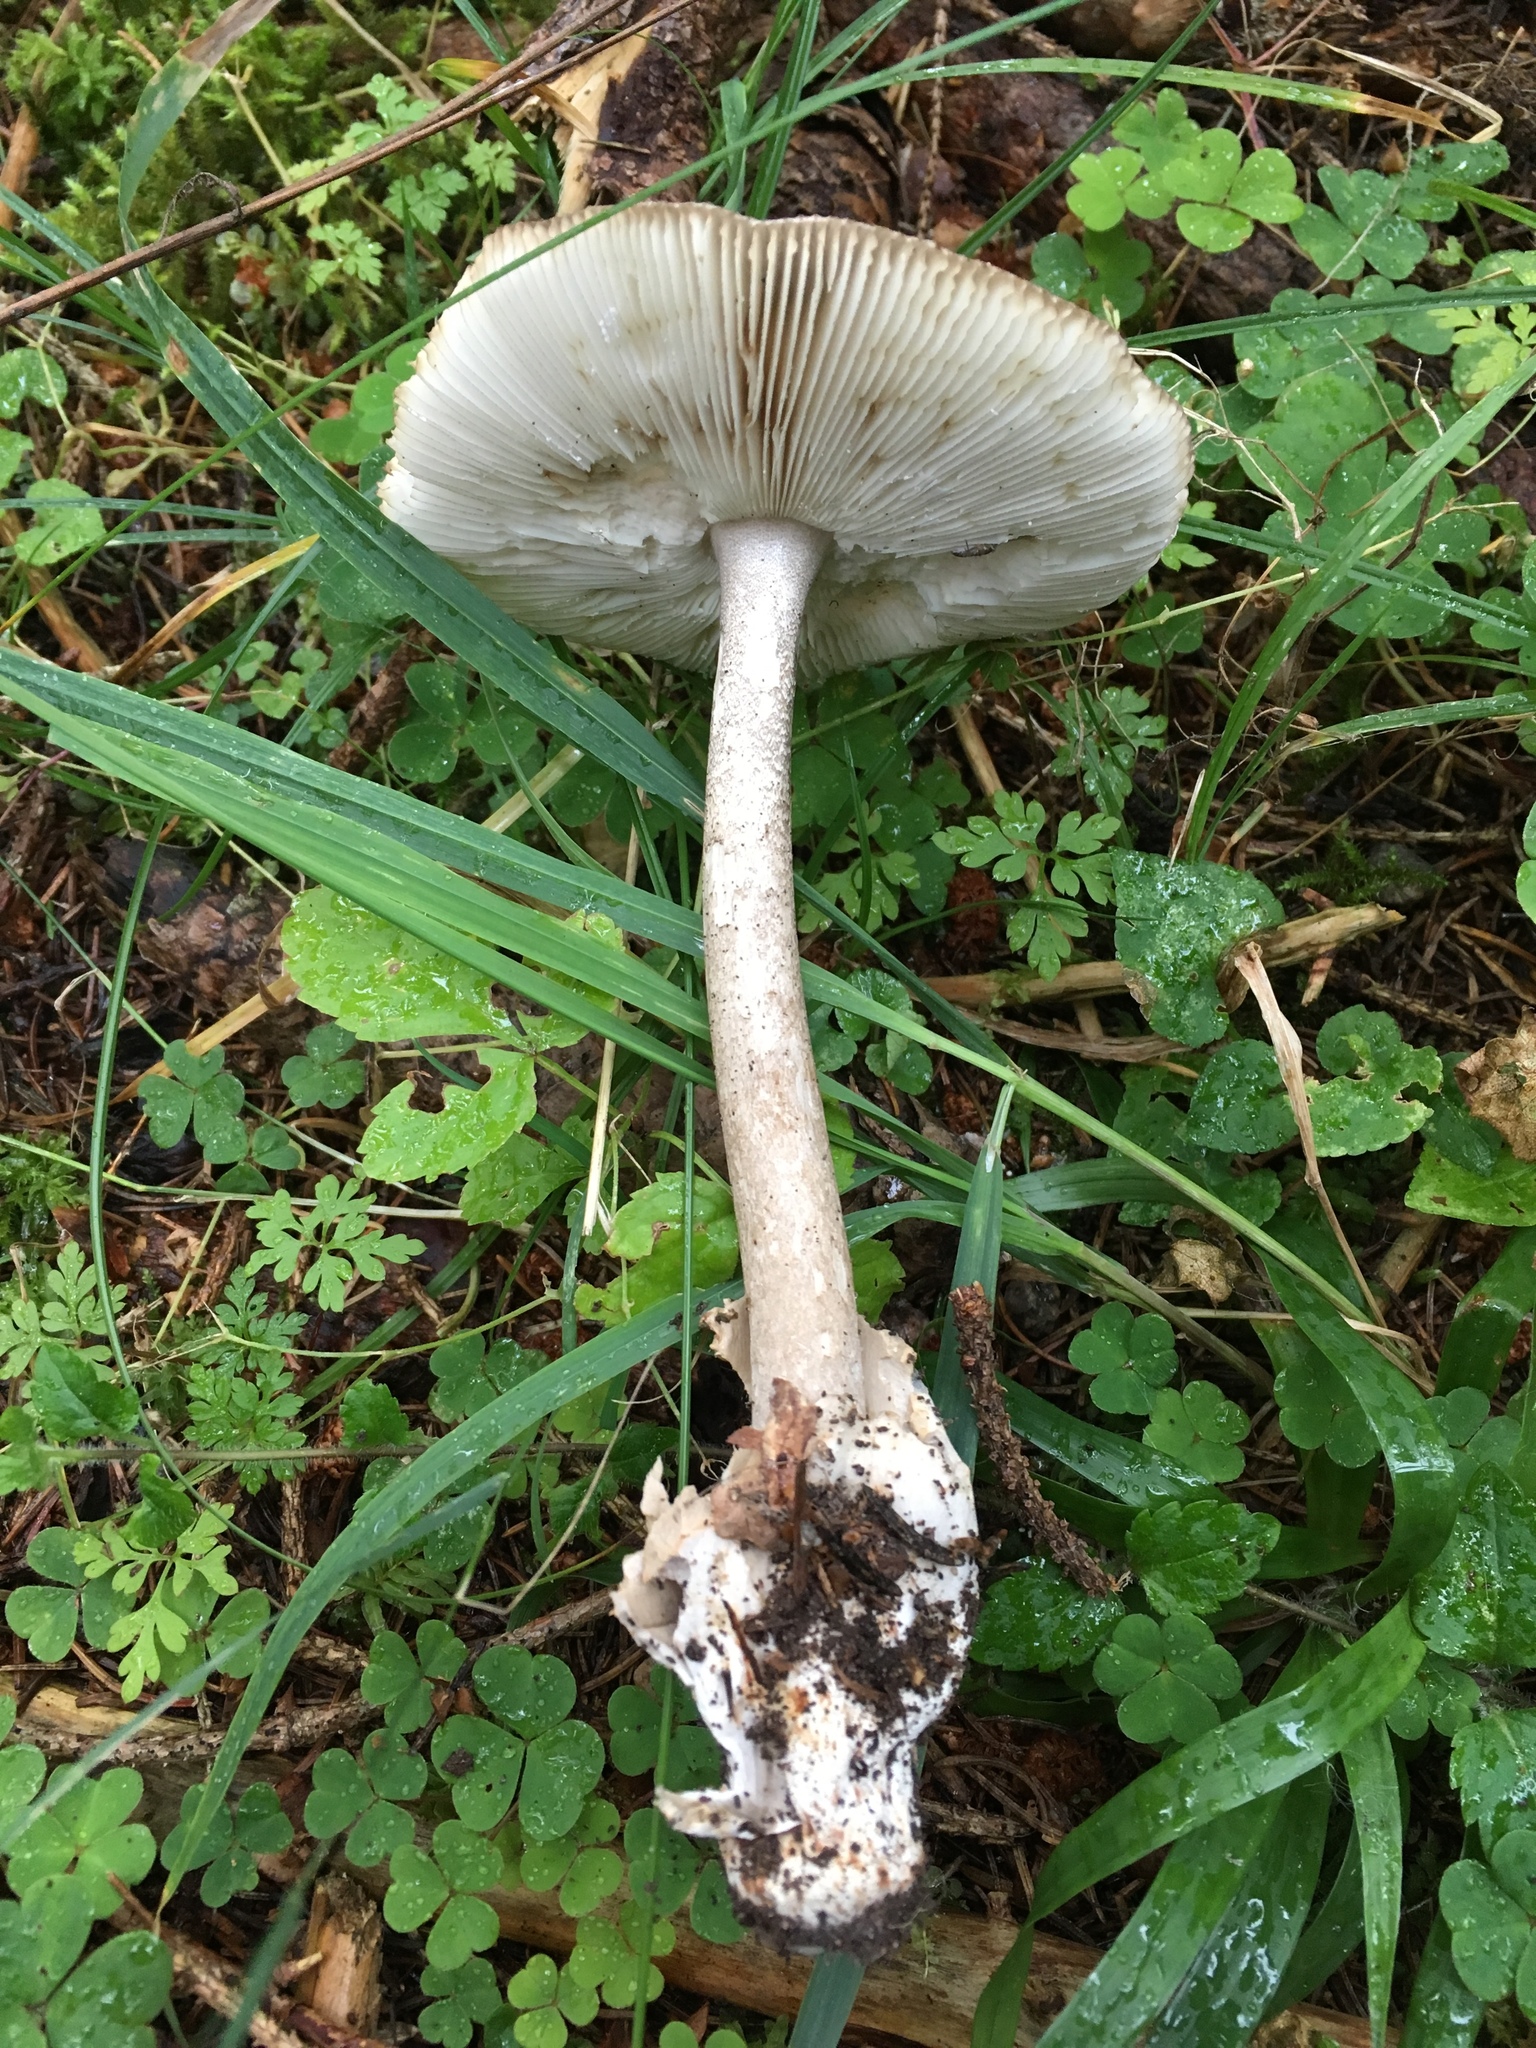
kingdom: Fungi
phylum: Basidiomycota
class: Agaricomycetes
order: Agaricales
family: Amanitaceae
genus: Amanita
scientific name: Amanita battarrae
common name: Banded amanita
